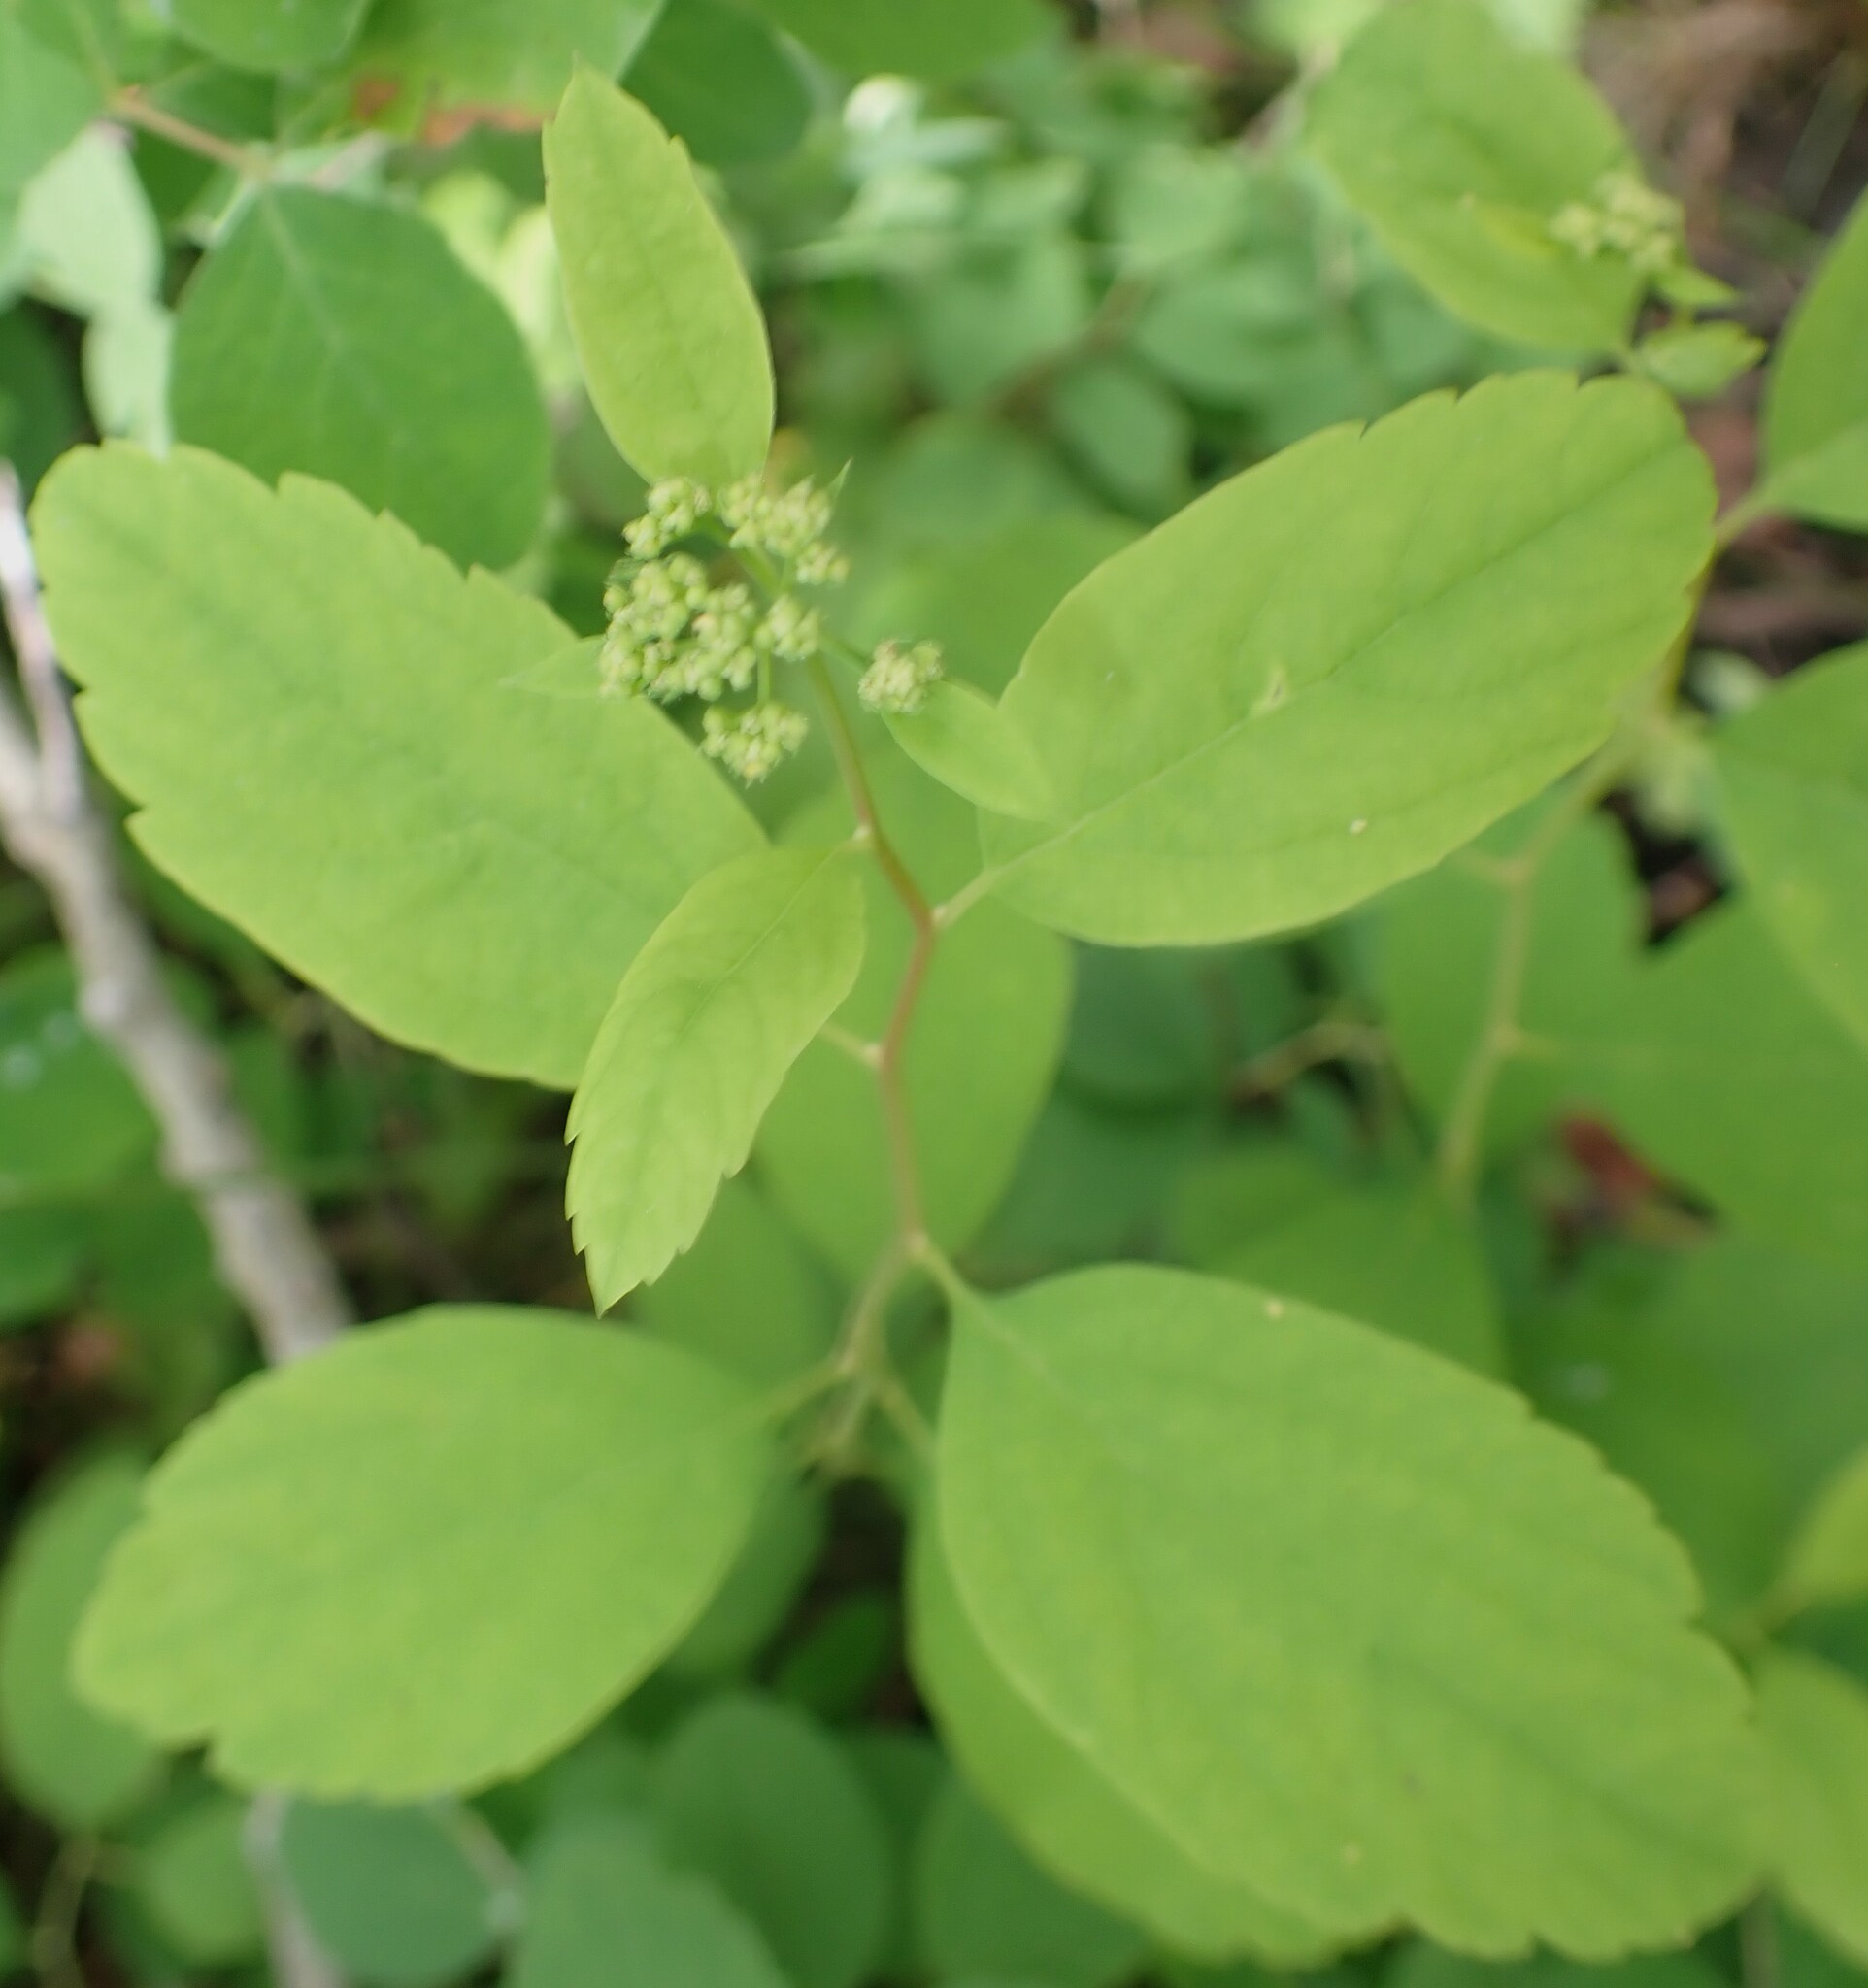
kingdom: Plantae
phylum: Tracheophyta
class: Magnoliopsida
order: Rosales
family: Rosaceae
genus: Spiraea
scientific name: Spiraea lucida
